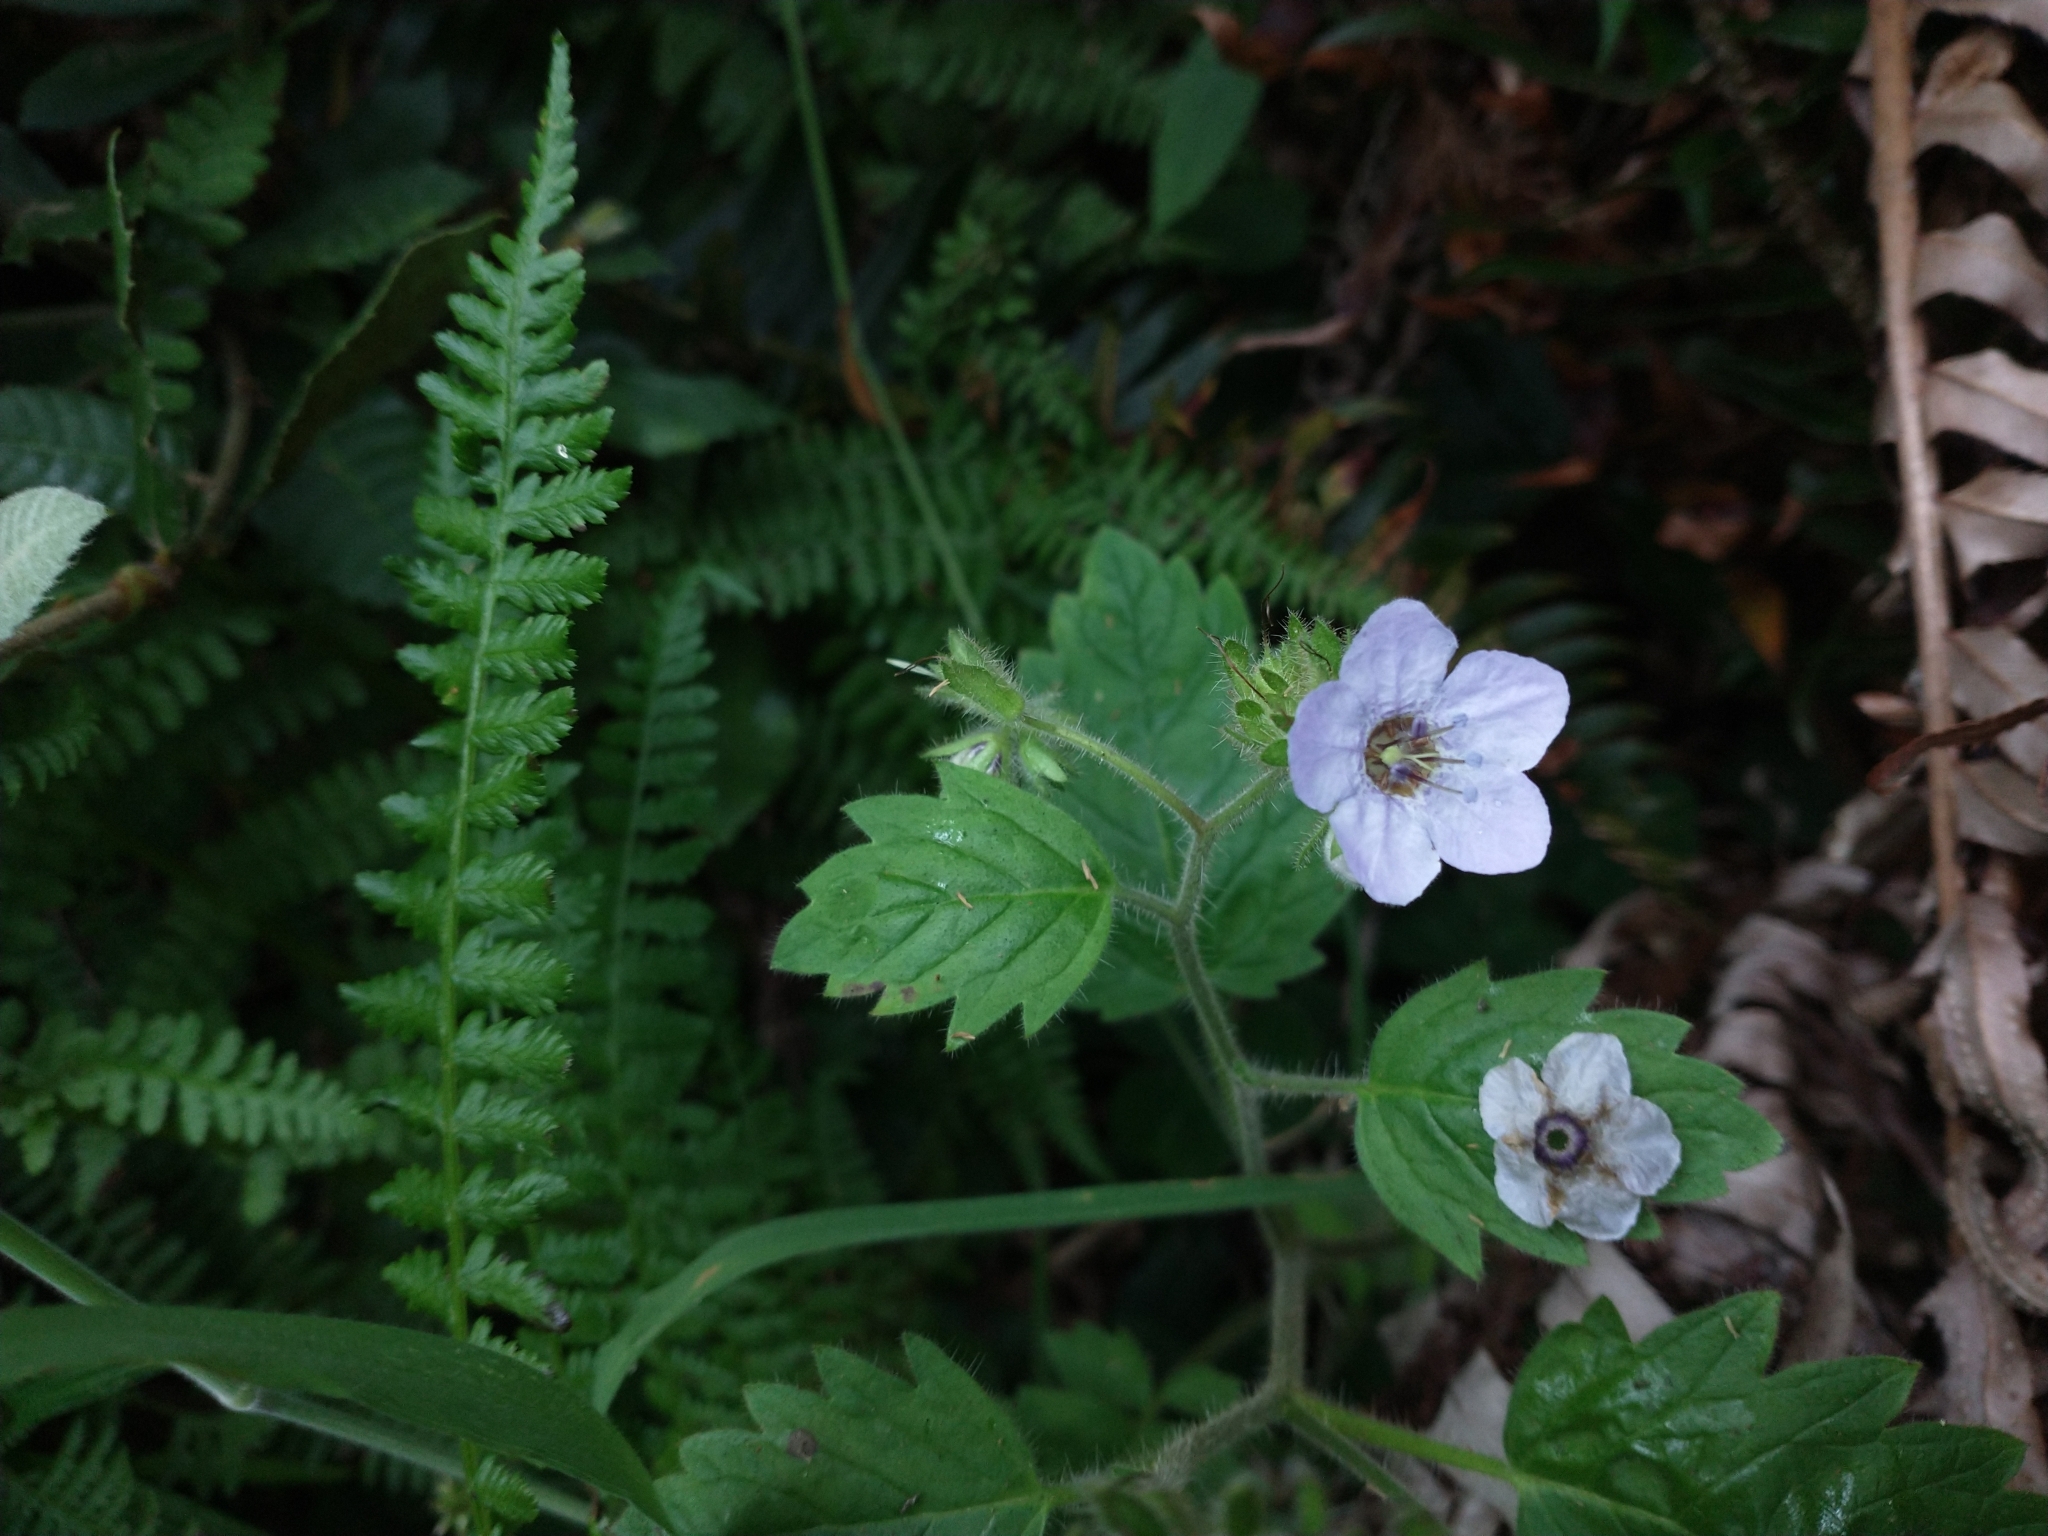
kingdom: Plantae
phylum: Tracheophyta
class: Magnoliopsida
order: Boraginales
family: Hydrophyllaceae
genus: Phacelia
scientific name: Phacelia bolanderi
